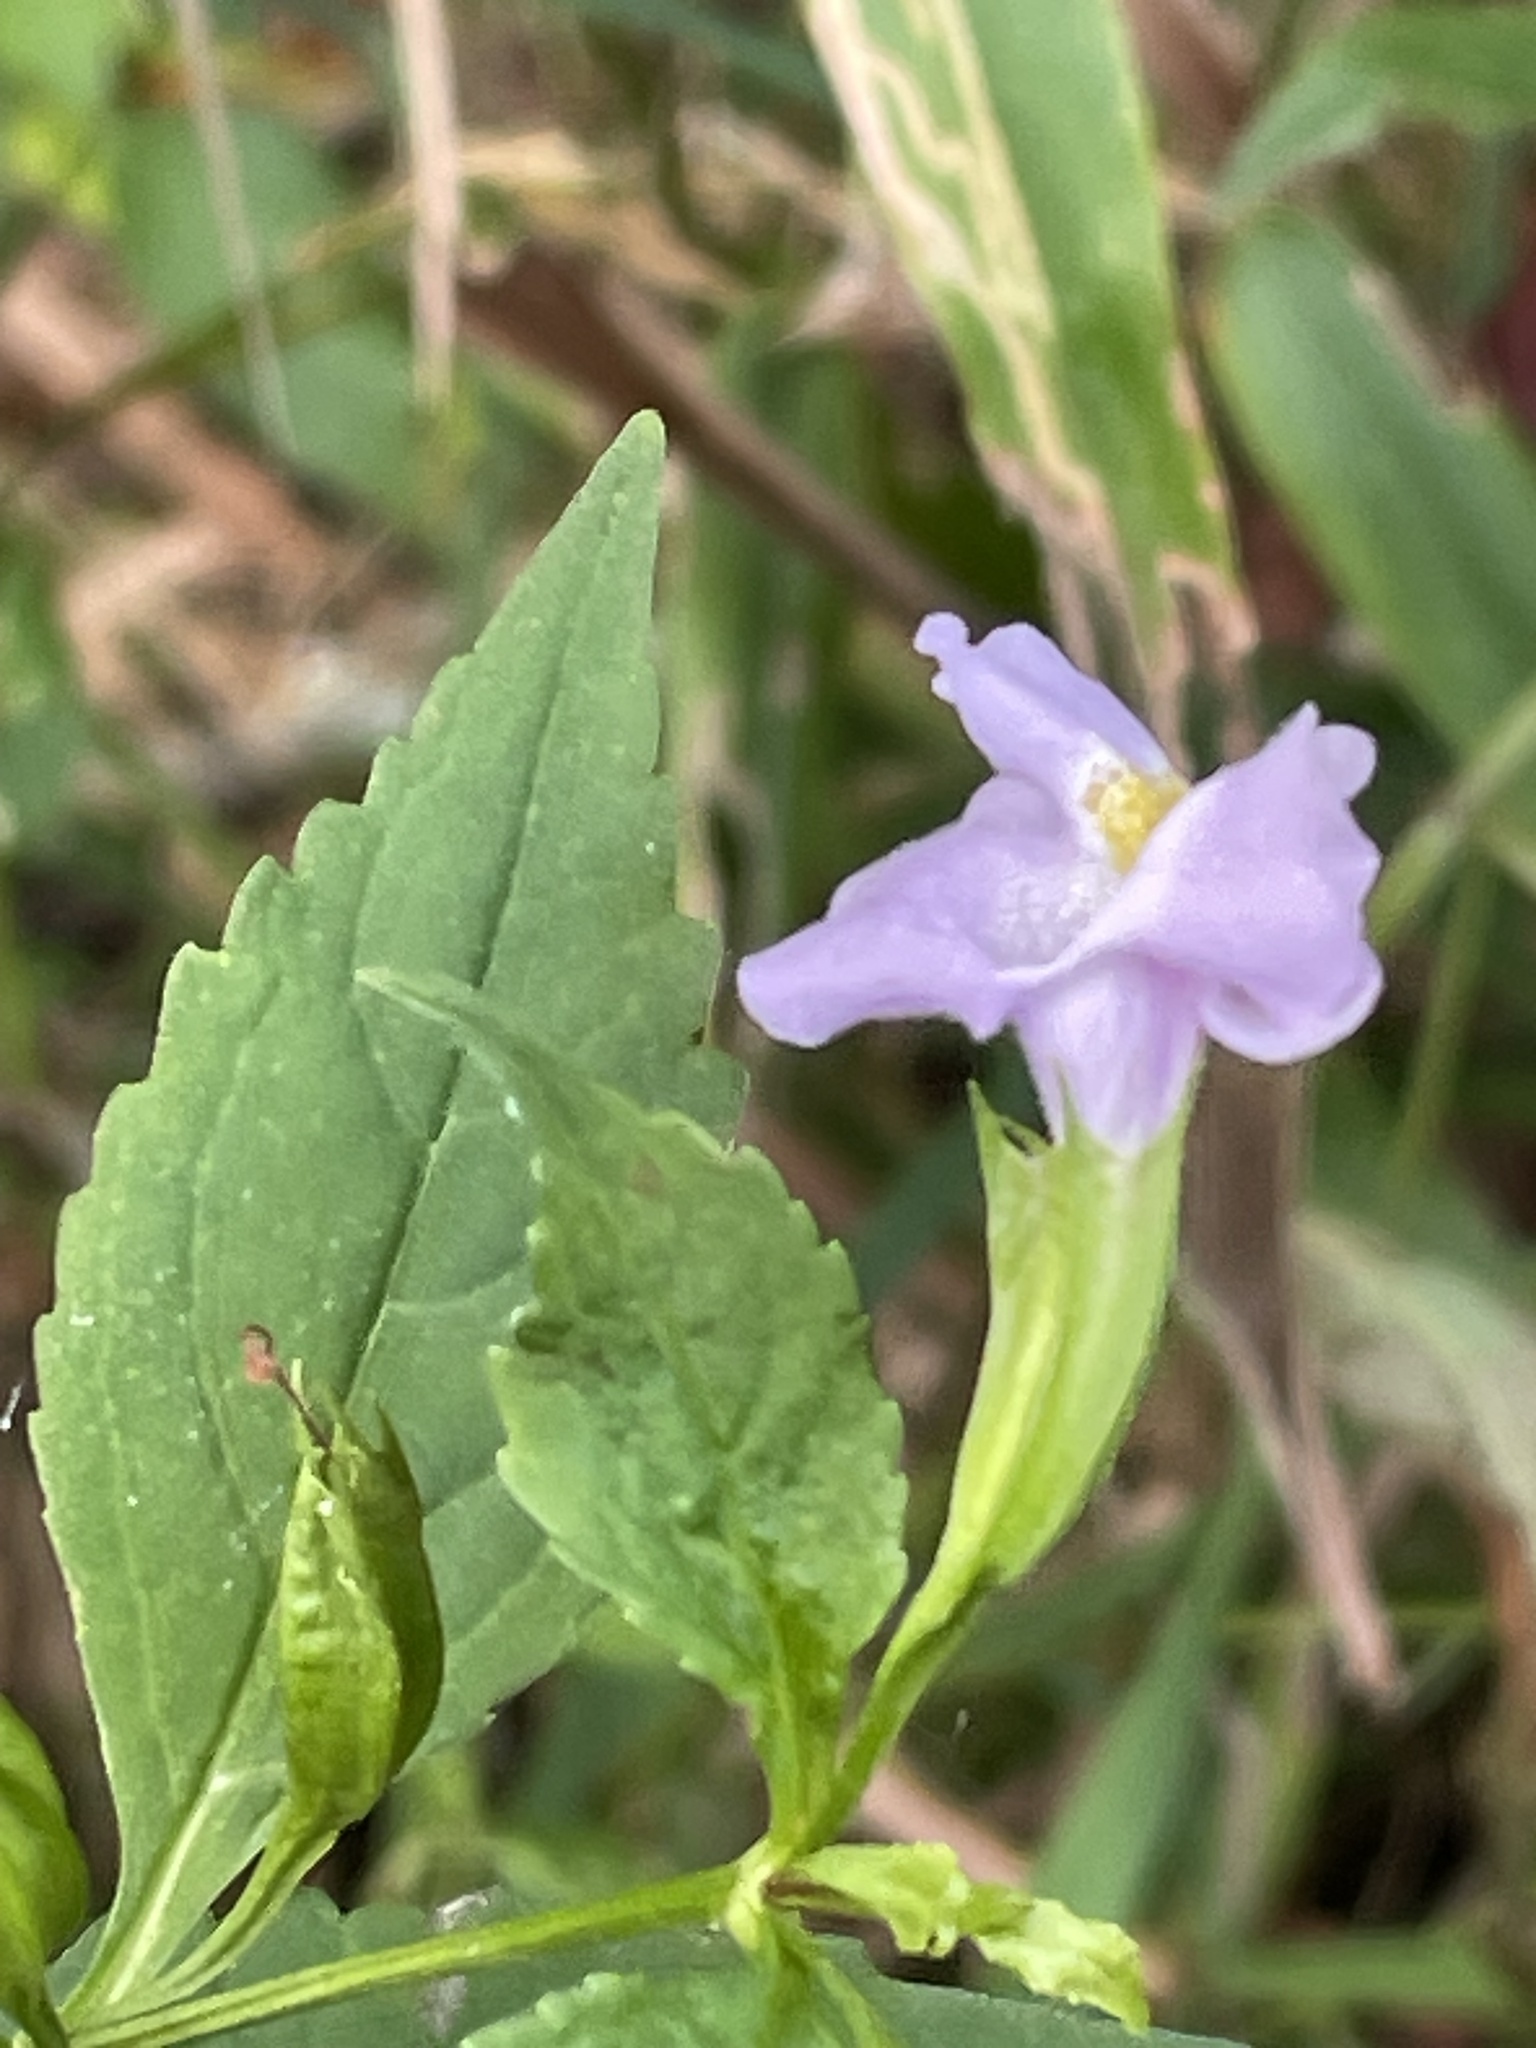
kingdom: Plantae
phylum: Tracheophyta
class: Magnoliopsida
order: Lamiales
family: Phrymaceae
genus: Mimulus
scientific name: Mimulus ringens
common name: Allegheny monkeyflower
